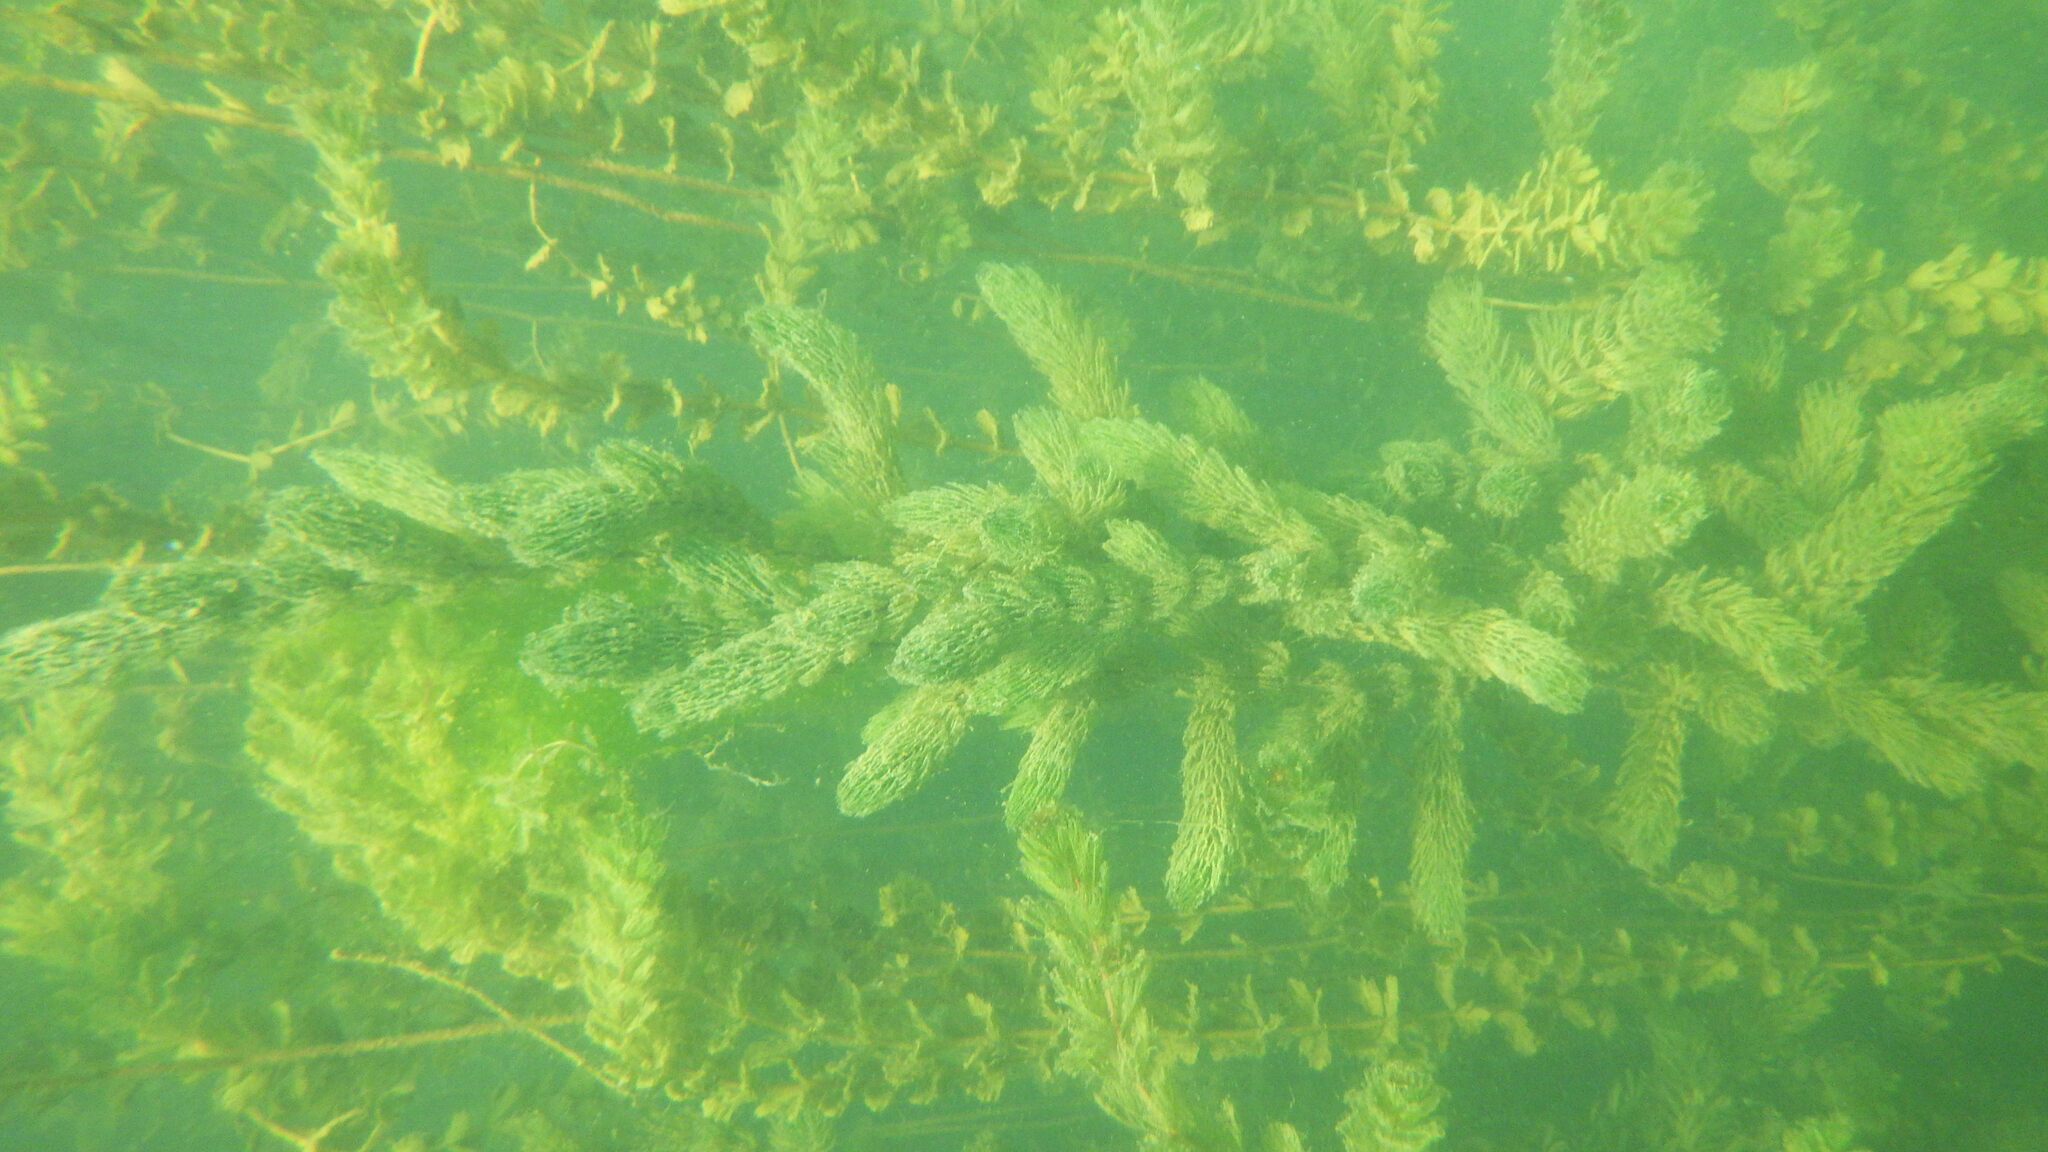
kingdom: Plantae
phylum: Tracheophyta
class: Magnoliopsida
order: Ceratophyllales
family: Ceratophyllaceae
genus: Ceratophyllum
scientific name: Ceratophyllum demersum
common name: Rigid hornwort
